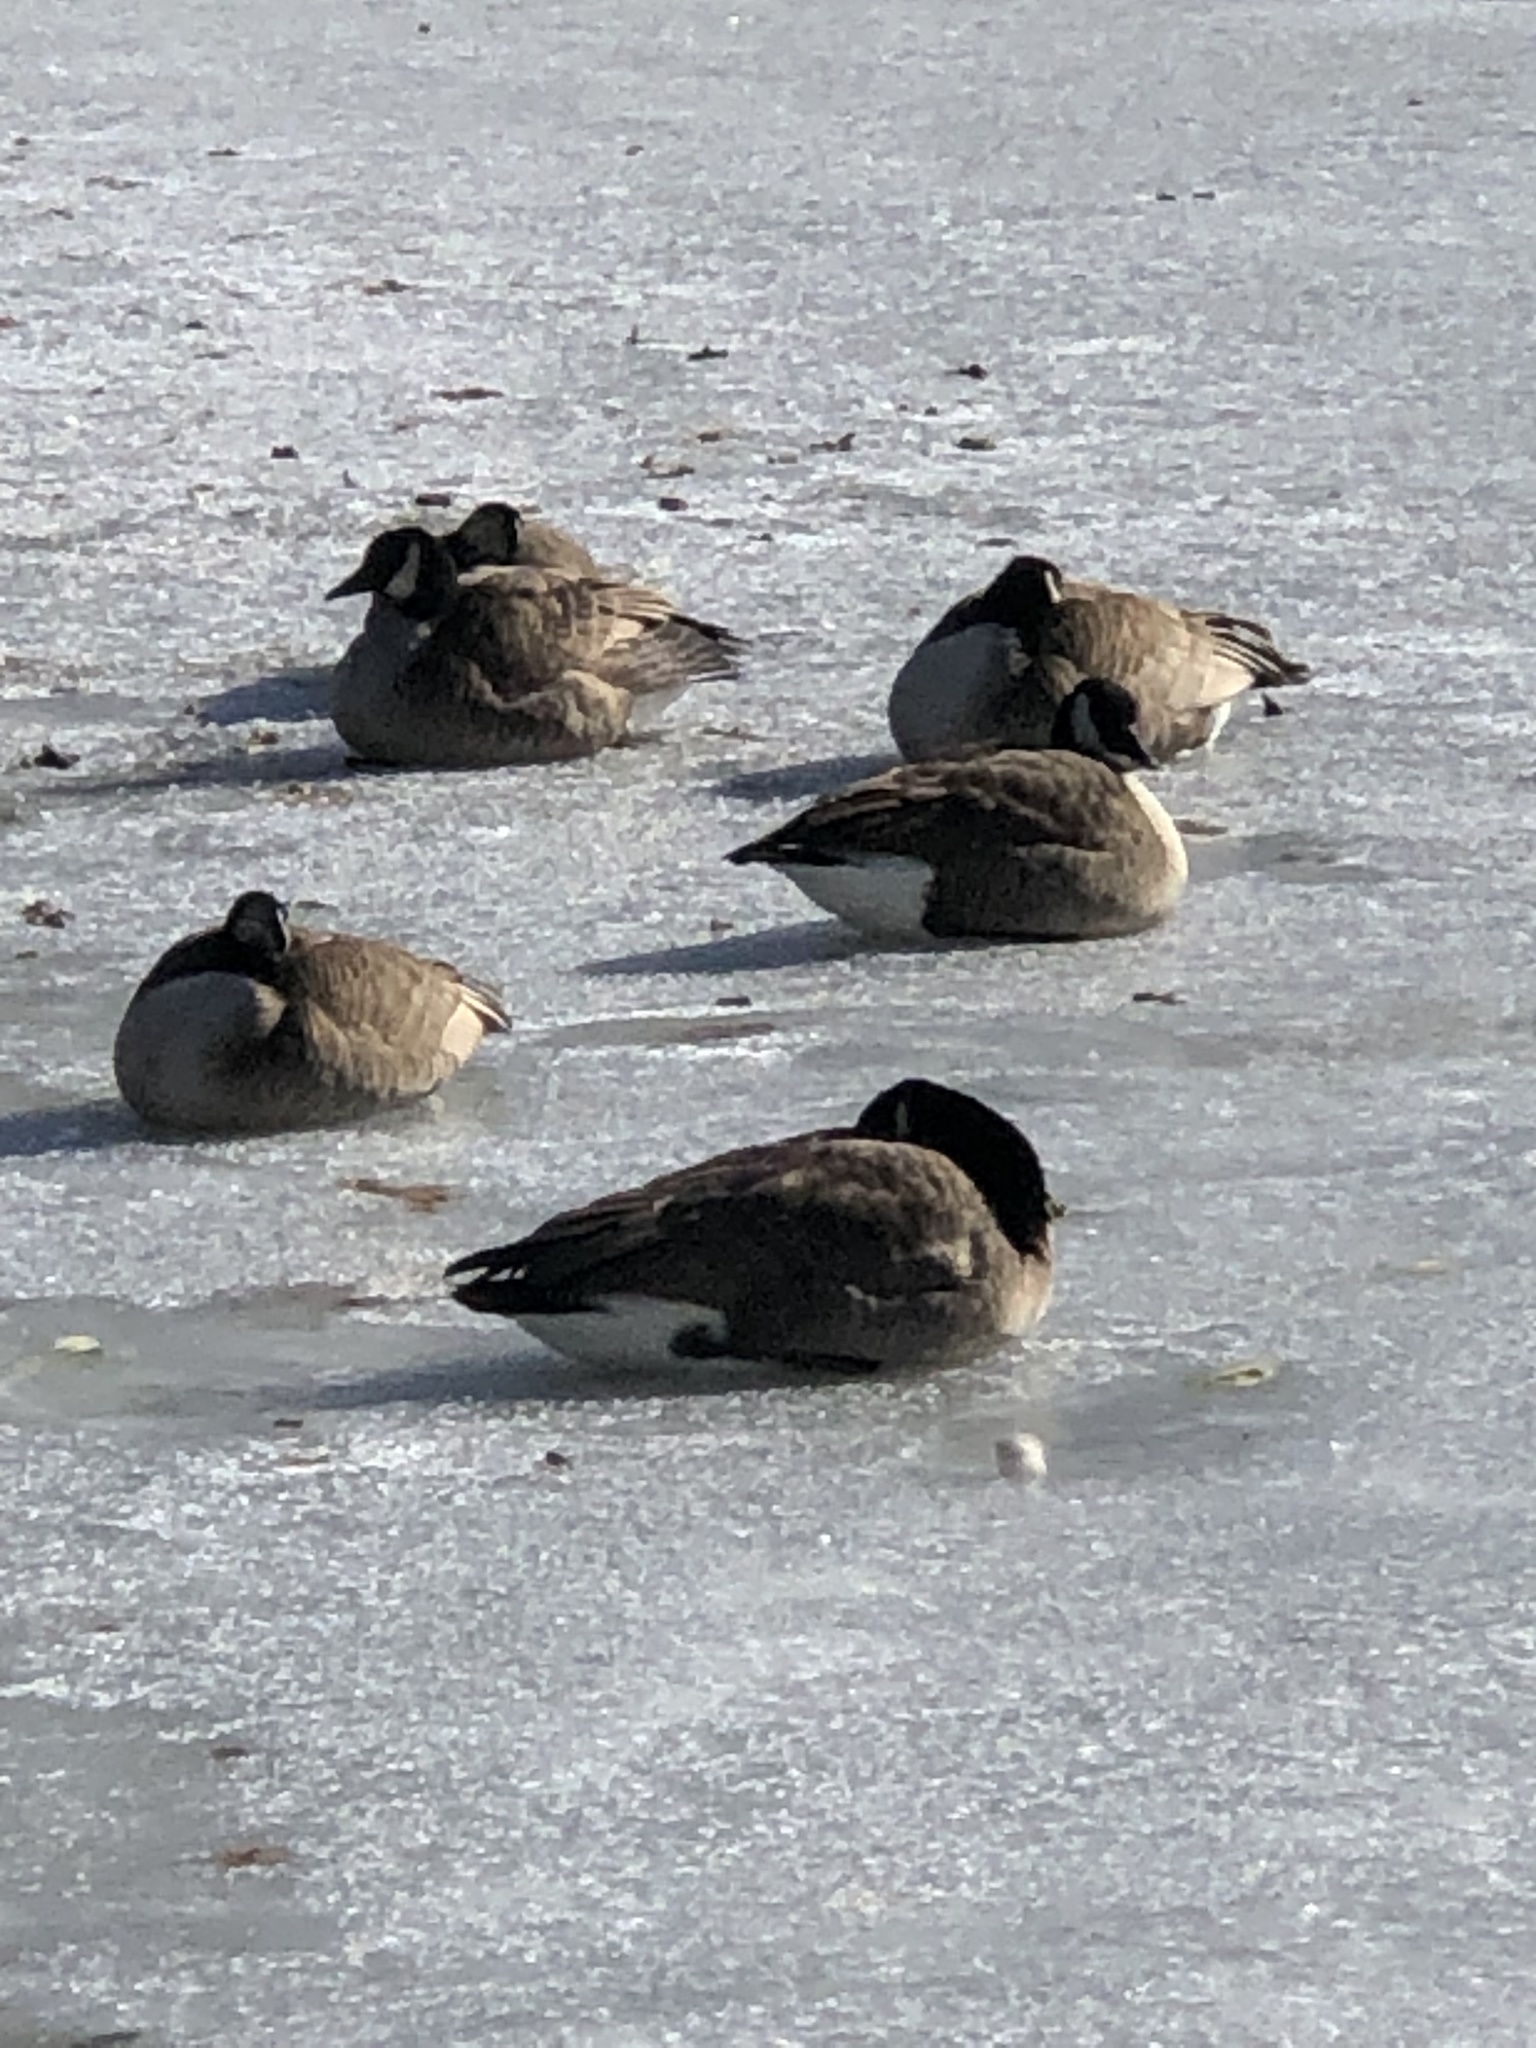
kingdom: Animalia
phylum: Chordata
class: Aves
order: Anseriformes
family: Anatidae
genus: Branta
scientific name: Branta canadensis
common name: Canada goose
